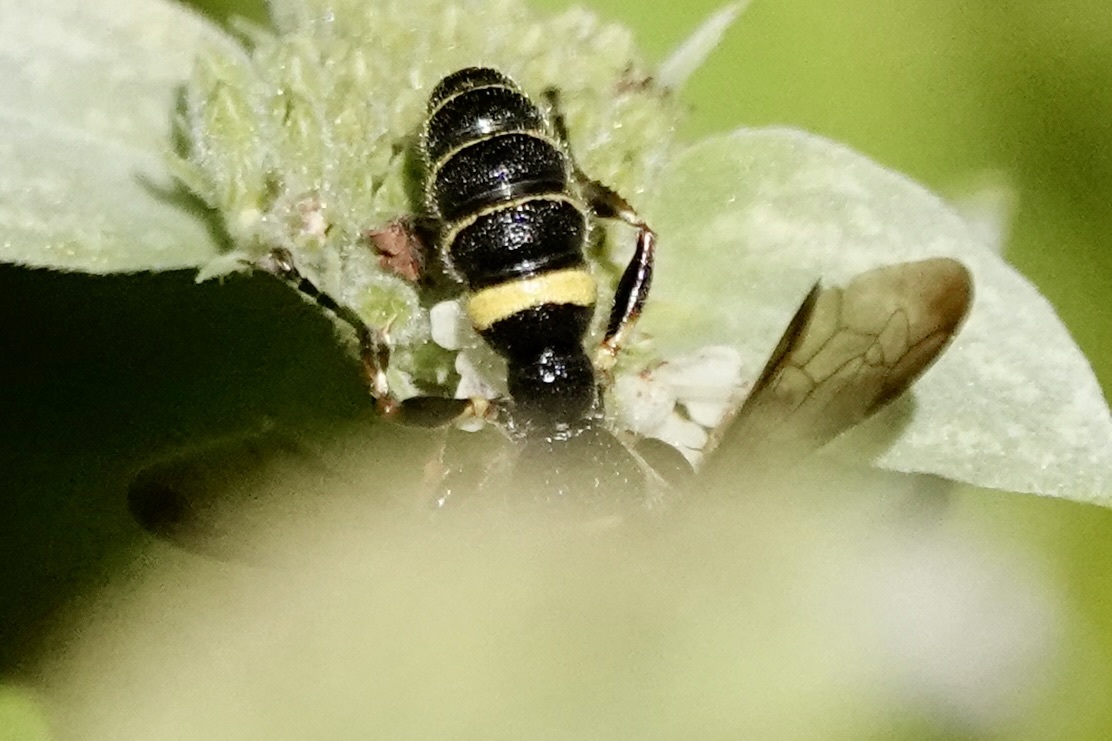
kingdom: Animalia
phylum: Arthropoda
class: Insecta
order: Hymenoptera
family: Crabronidae
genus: Cerceris
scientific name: Cerceris
